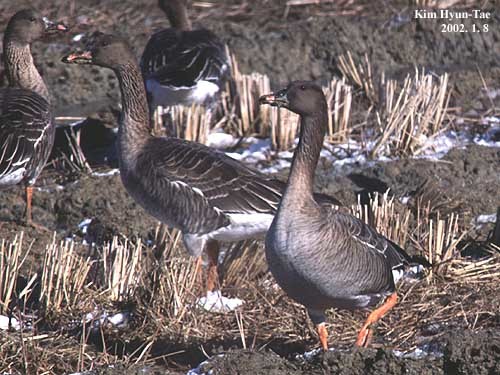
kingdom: Animalia
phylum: Chordata
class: Aves
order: Anseriformes
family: Anatidae
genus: Anser
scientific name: Anser serrirostris
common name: Tundra bean goose
